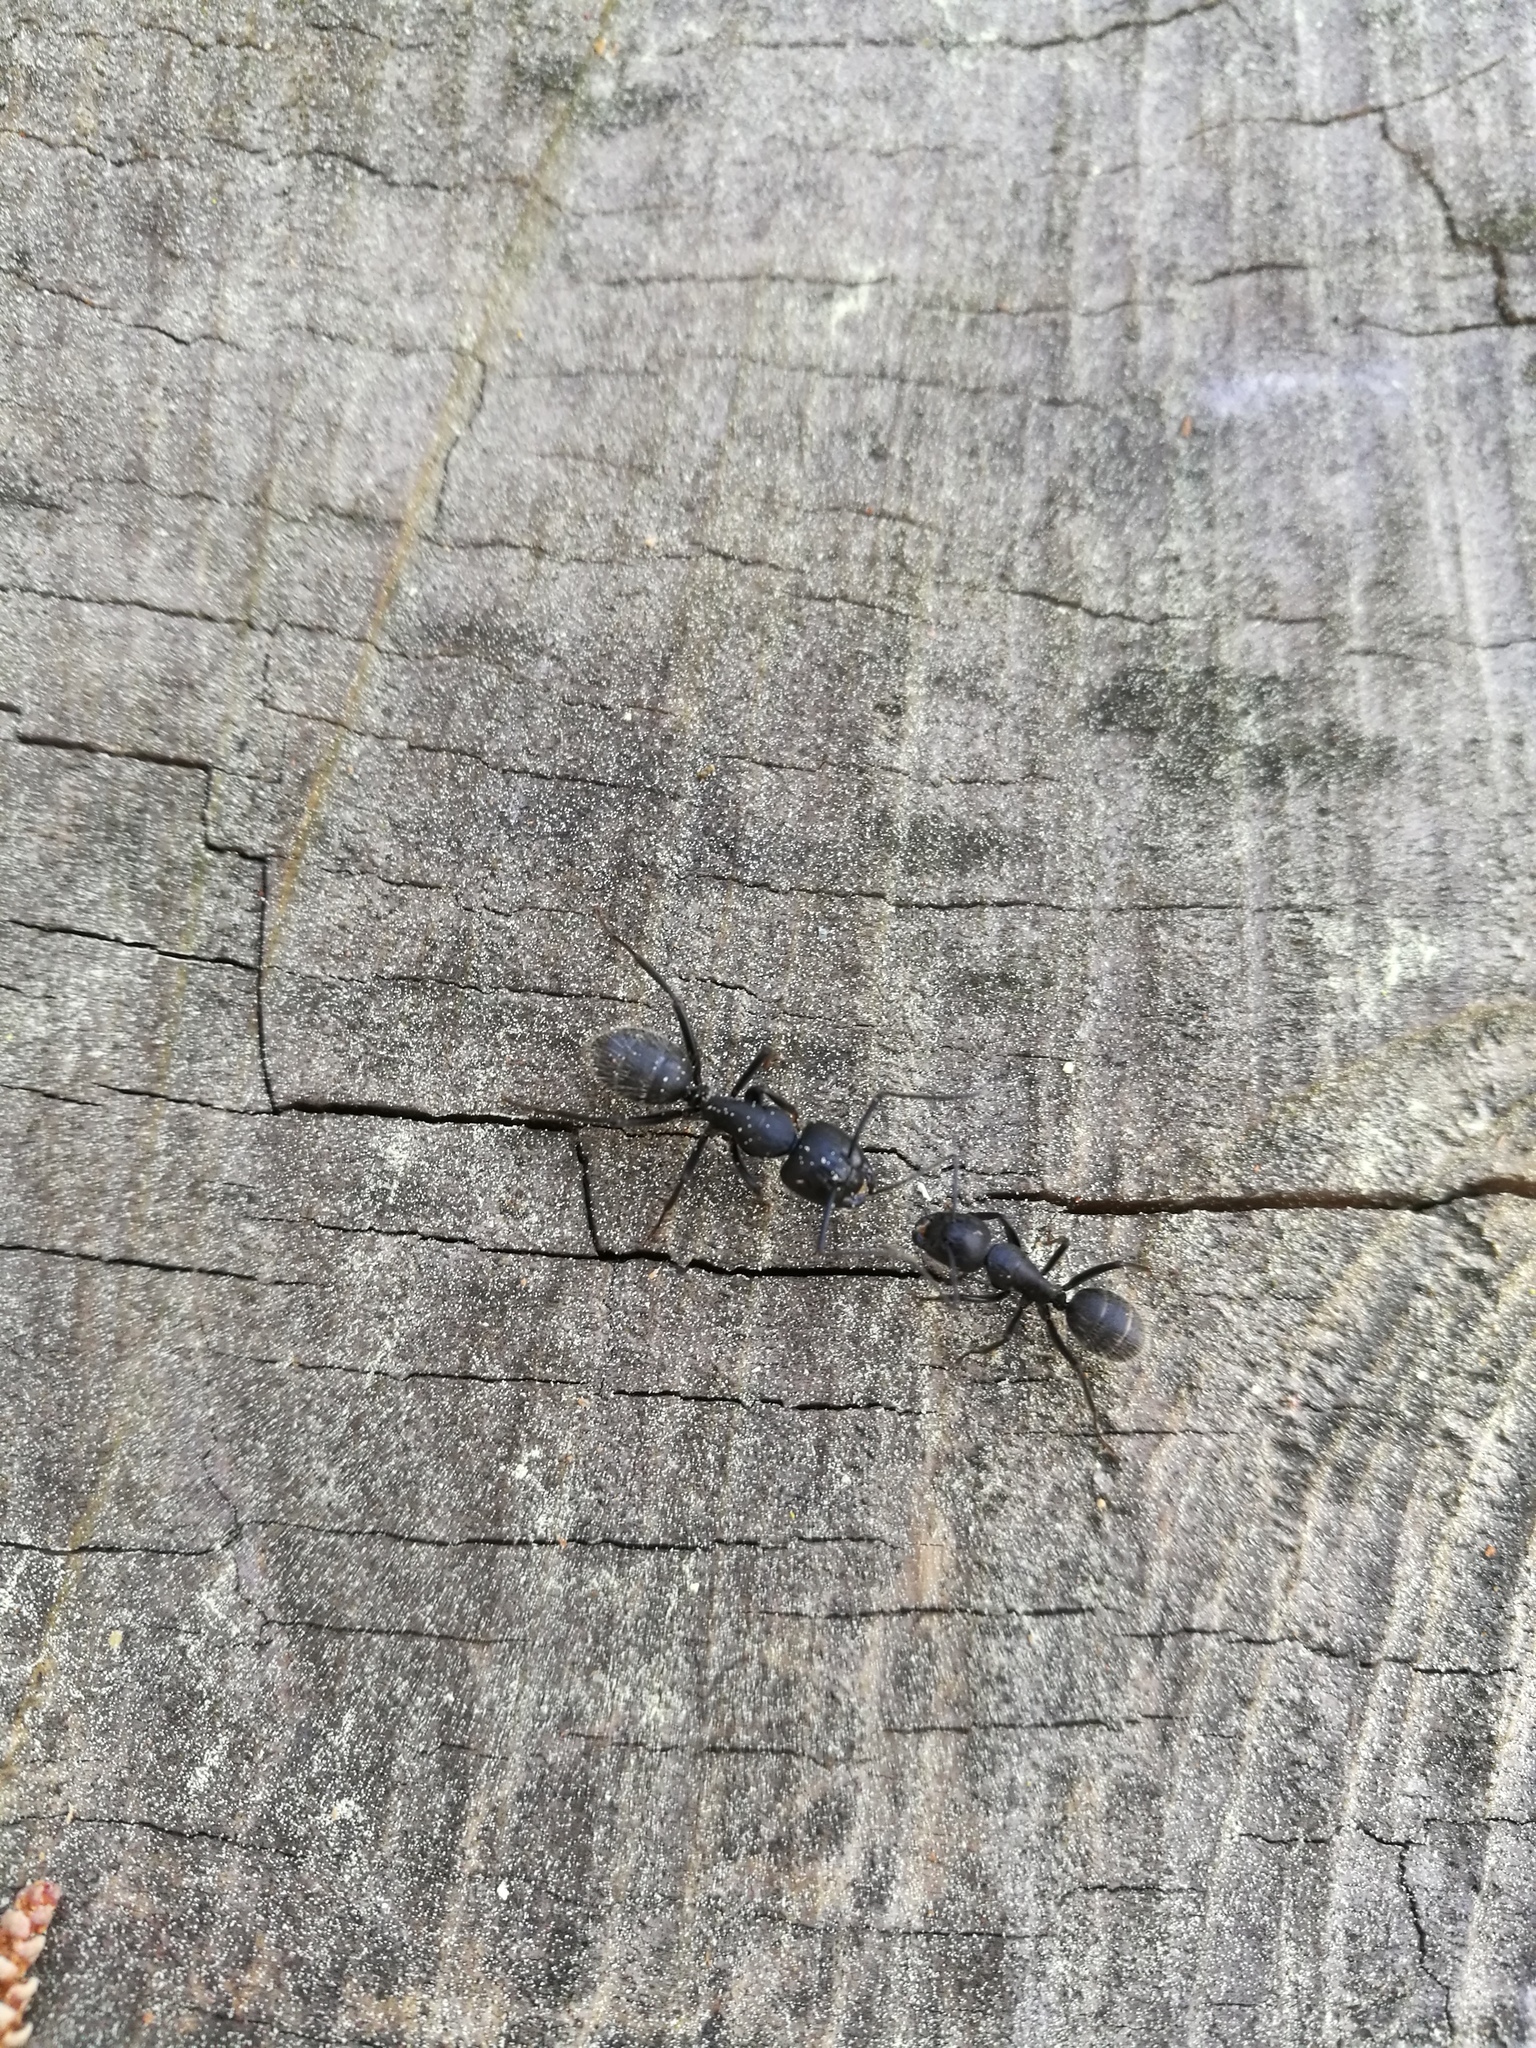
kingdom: Animalia
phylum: Arthropoda
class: Insecta
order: Hymenoptera
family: Formicidae
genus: Camponotus
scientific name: Camponotus vagus
